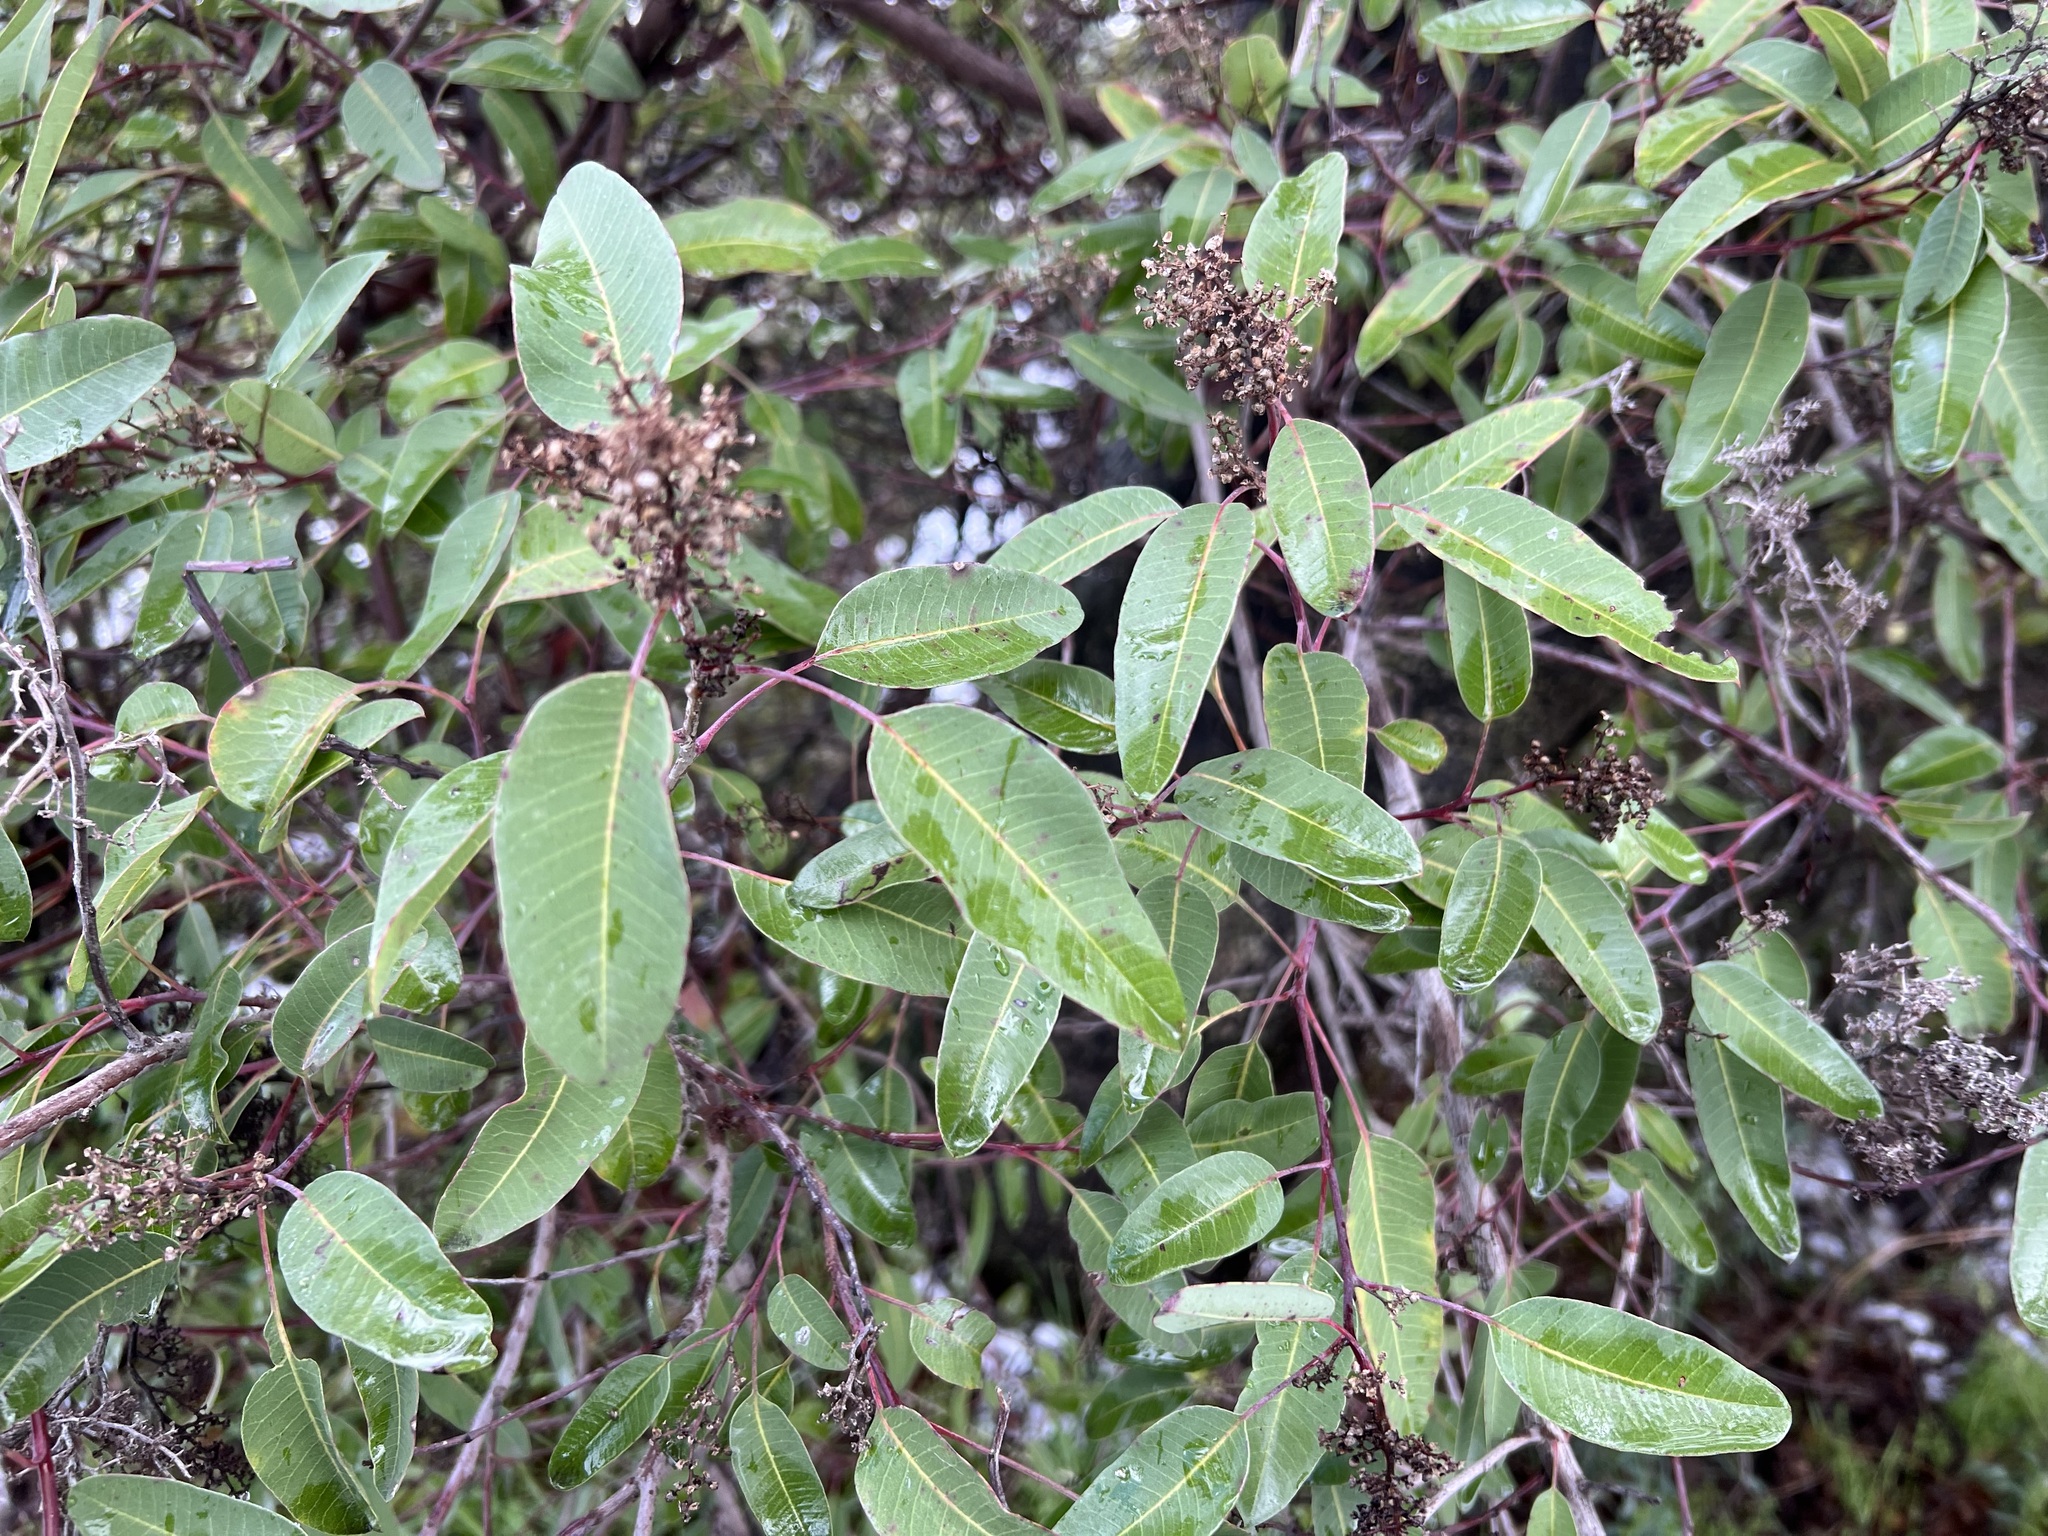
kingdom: Plantae
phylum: Tracheophyta
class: Magnoliopsida
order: Sapindales
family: Anacardiaceae
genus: Malosma
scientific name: Malosma laurina
